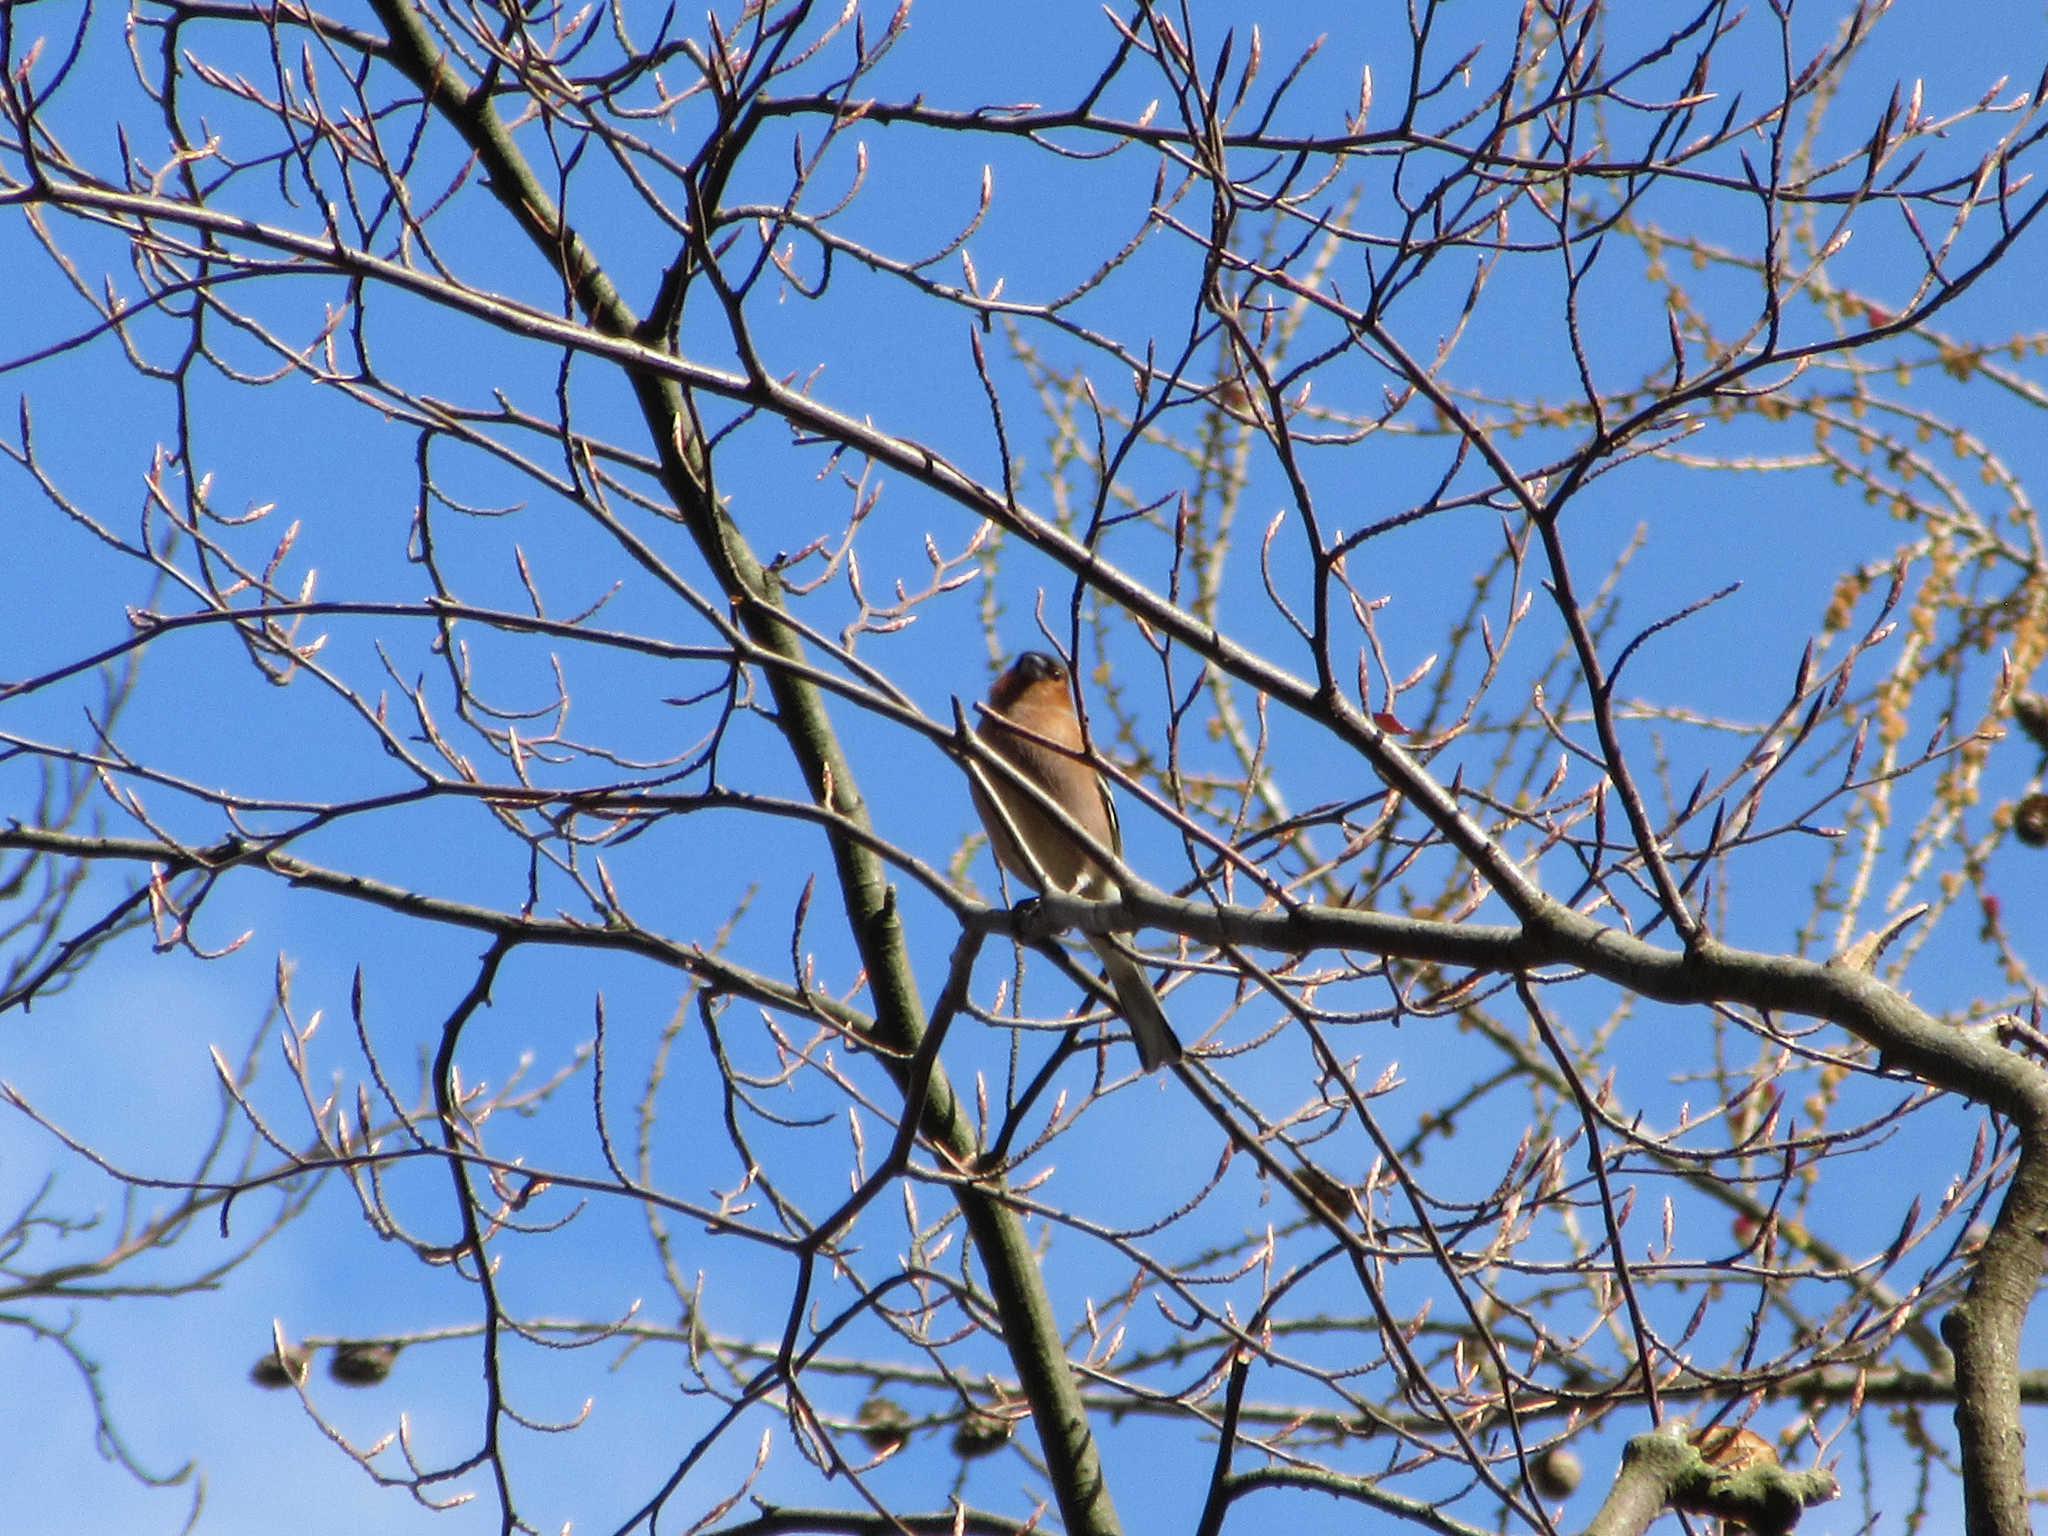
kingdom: Animalia
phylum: Chordata
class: Aves
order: Passeriformes
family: Fringillidae
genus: Coccothraustes
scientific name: Coccothraustes coccothraustes
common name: Hawfinch
